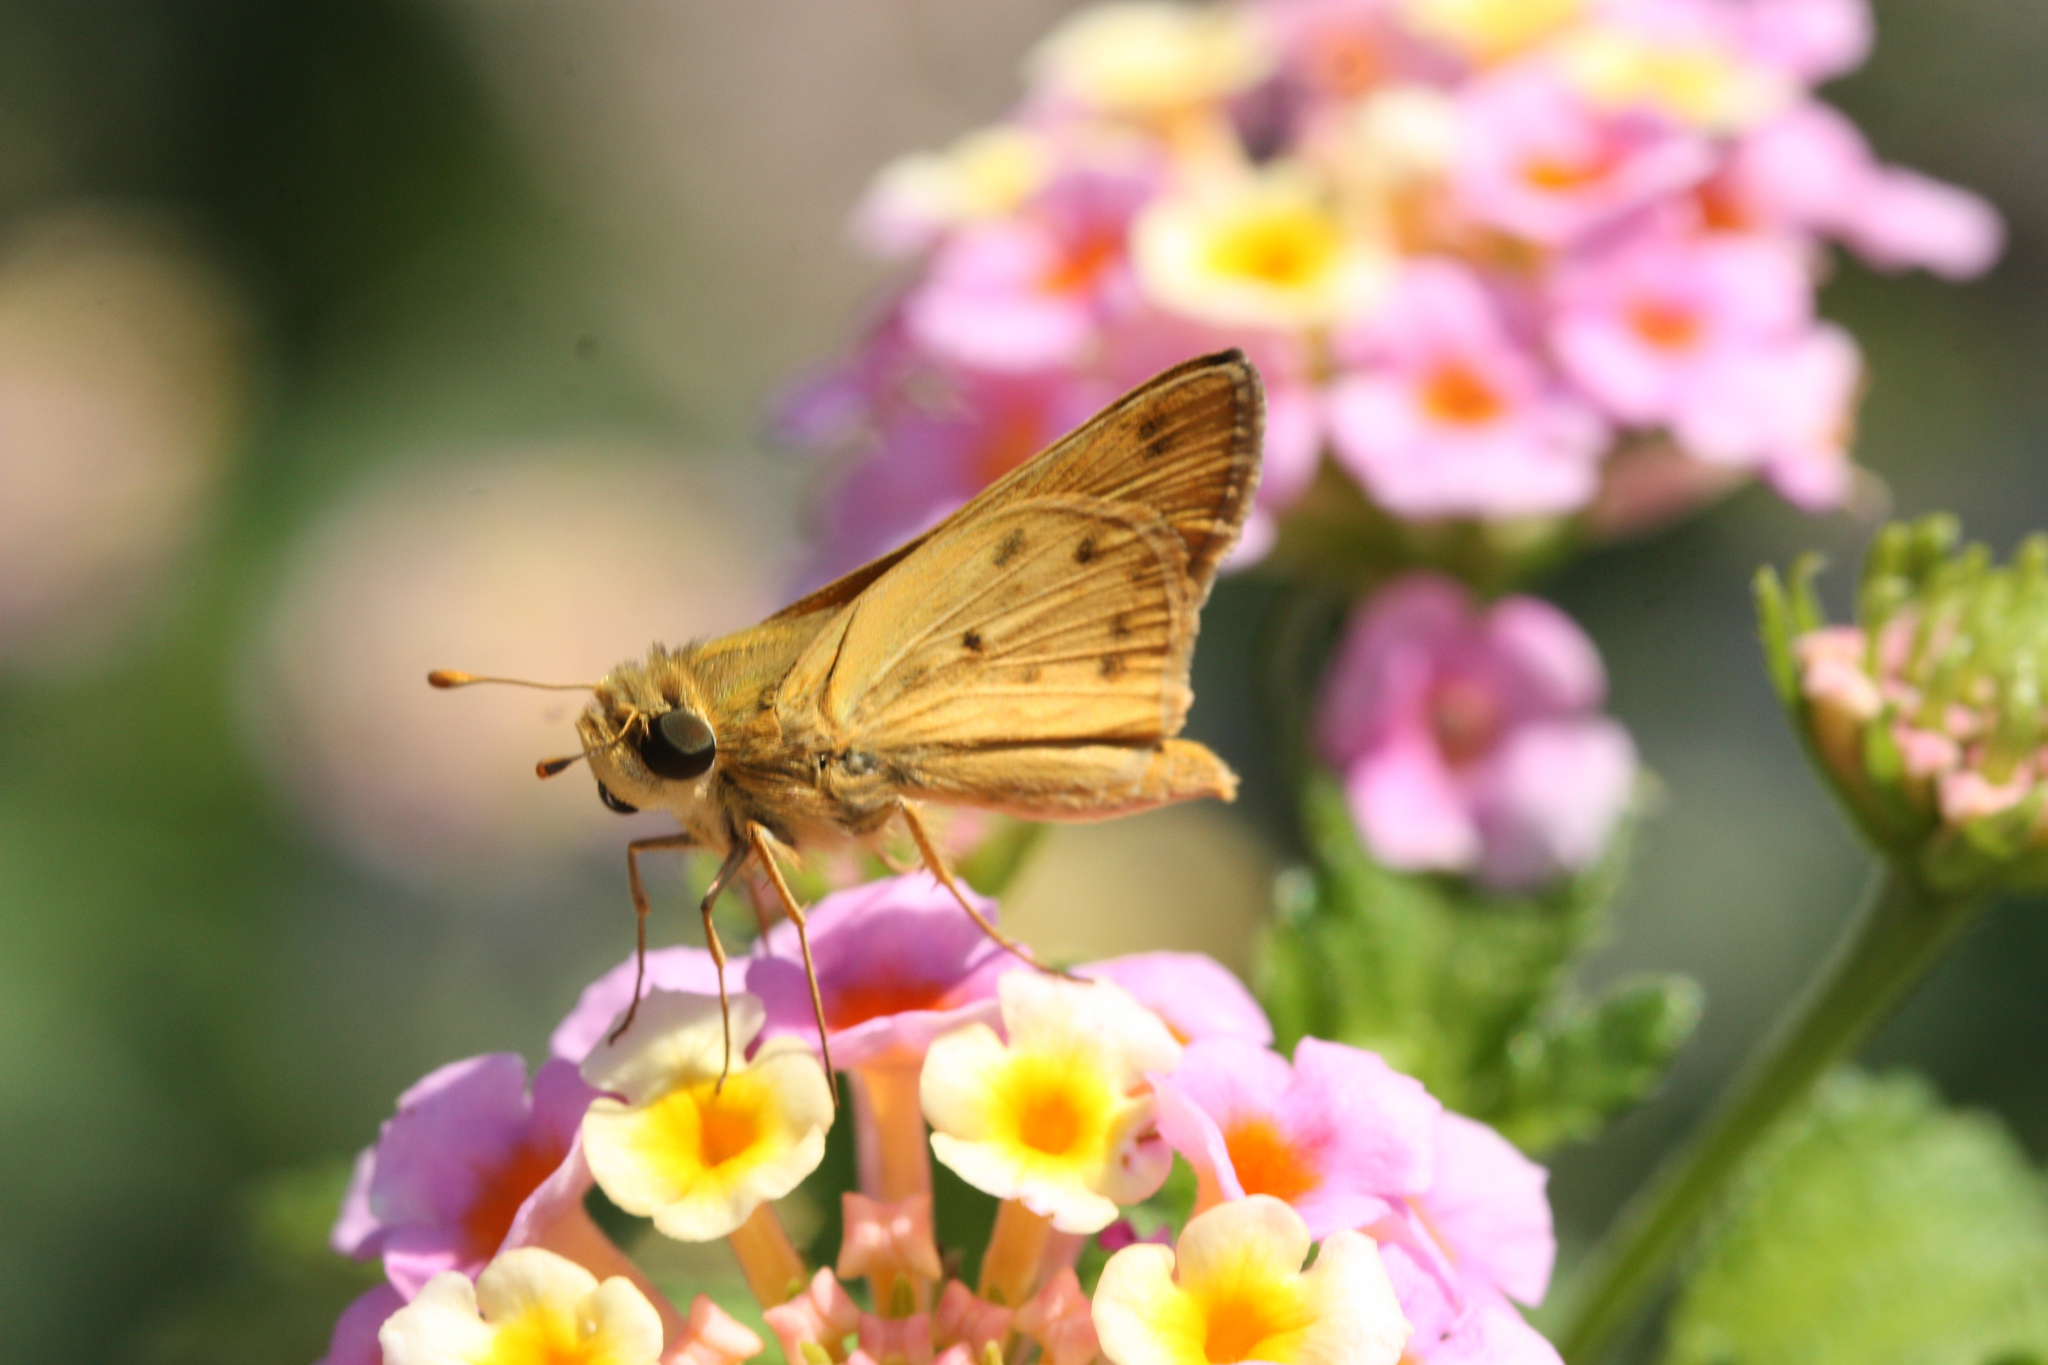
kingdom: Animalia
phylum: Arthropoda
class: Insecta
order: Lepidoptera
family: Hesperiidae
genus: Hylephila
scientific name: Hylephila phyleus
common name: Fiery skipper
